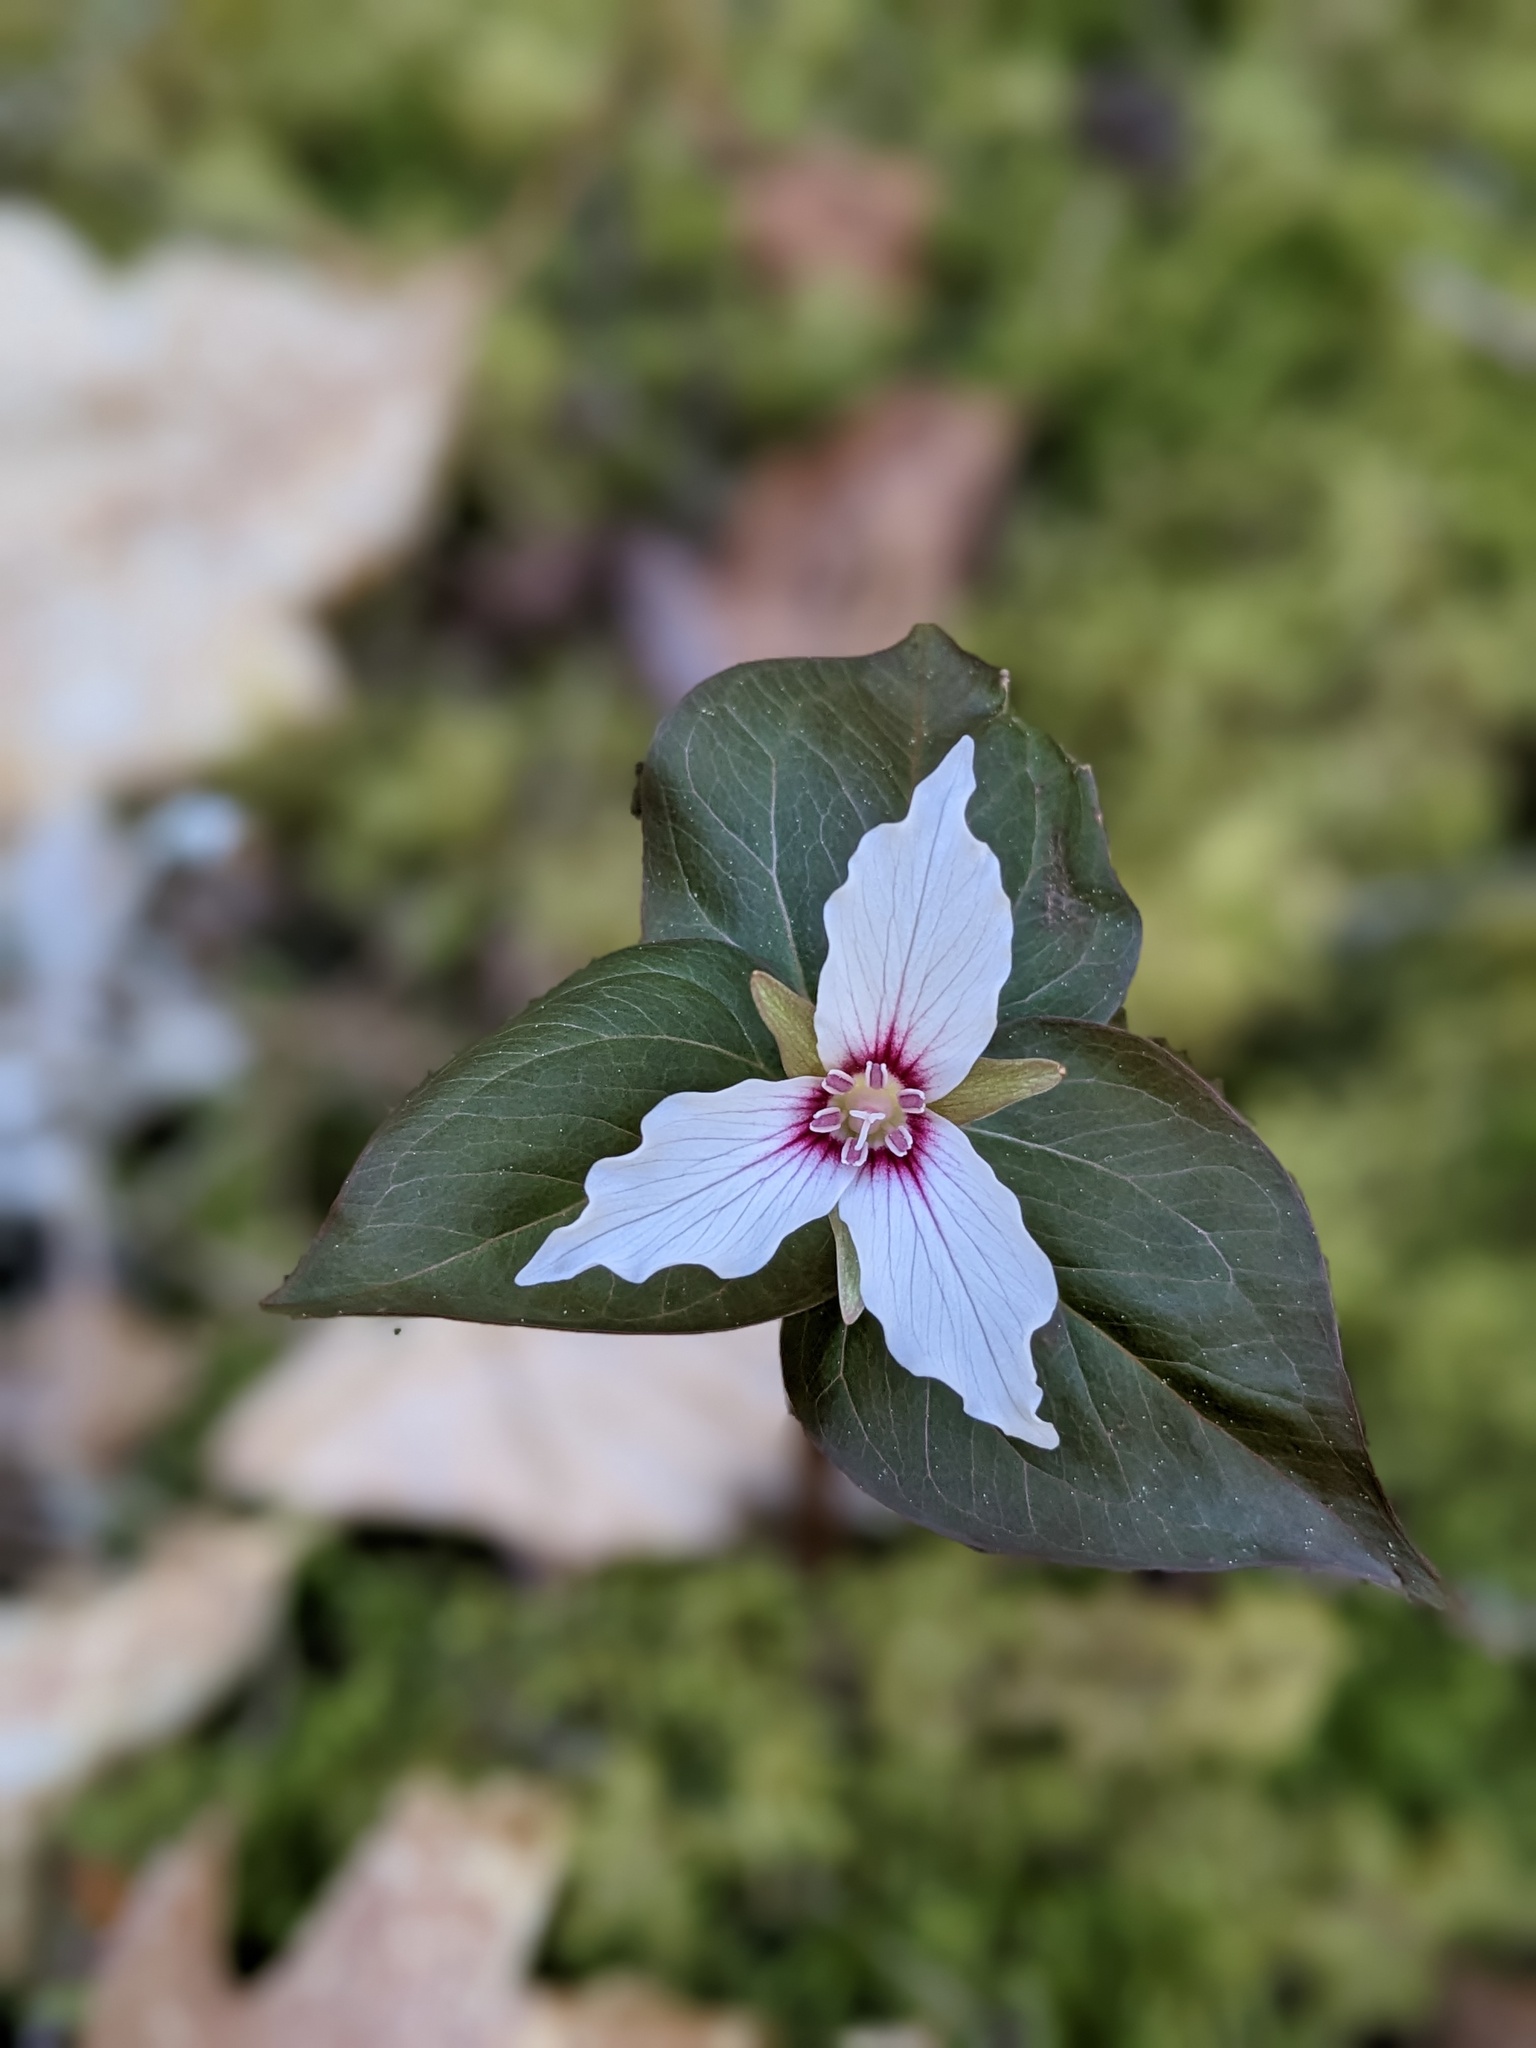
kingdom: Plantae
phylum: Tracheophyta
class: Liliopsida
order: Liliales
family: Melanthiaceae
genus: Trillium
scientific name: Trillium undulatum
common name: Paint trillium
